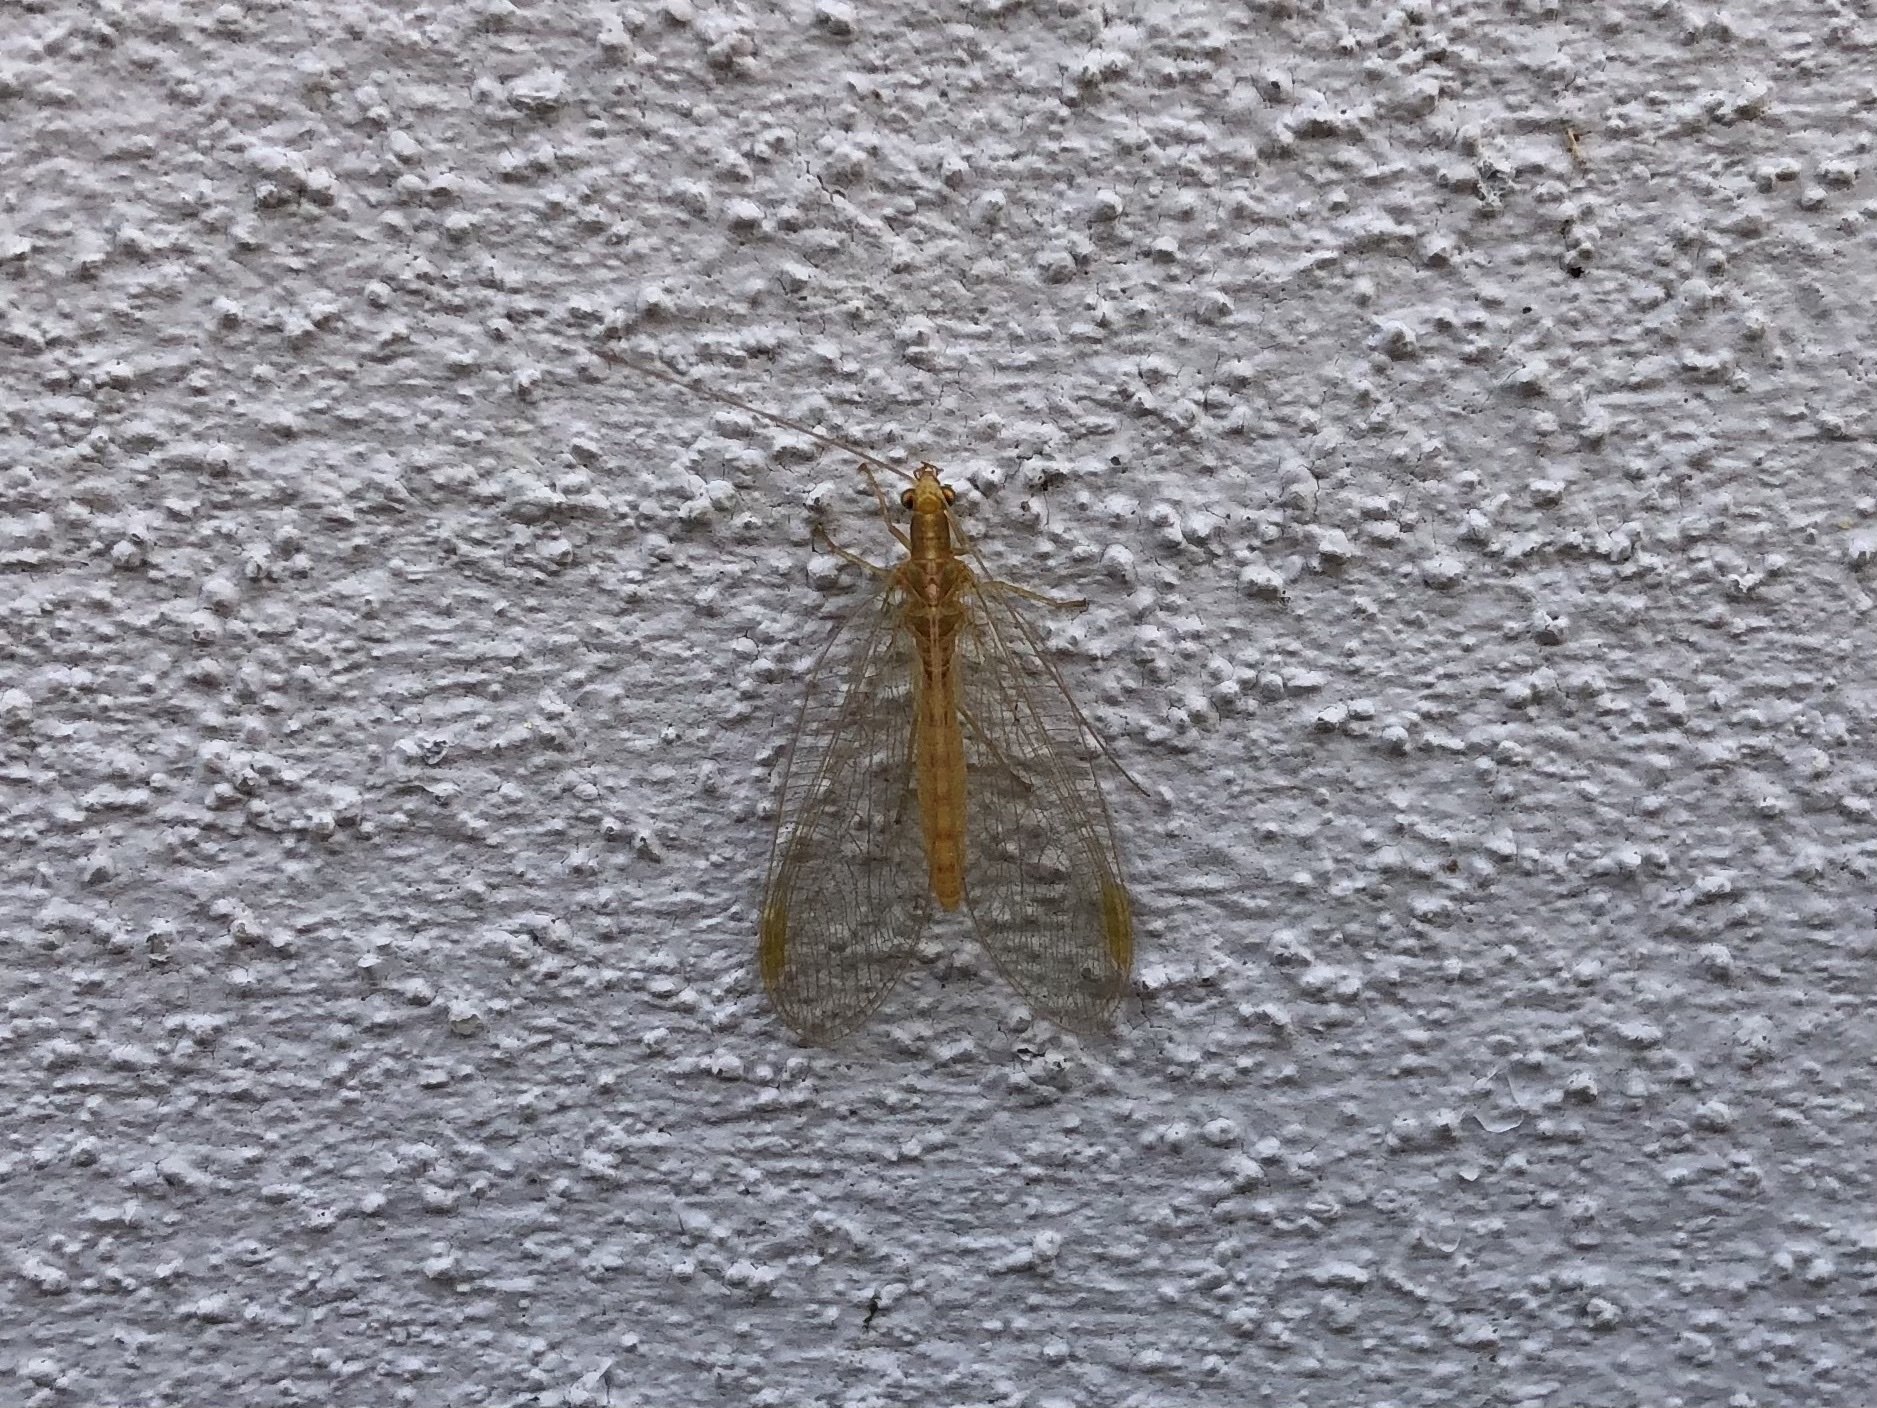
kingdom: Animalia
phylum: Arthropoda
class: Insecta
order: Neuroptera
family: Chrysopidae
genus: Chrysoperla
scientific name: Chrysoperla
